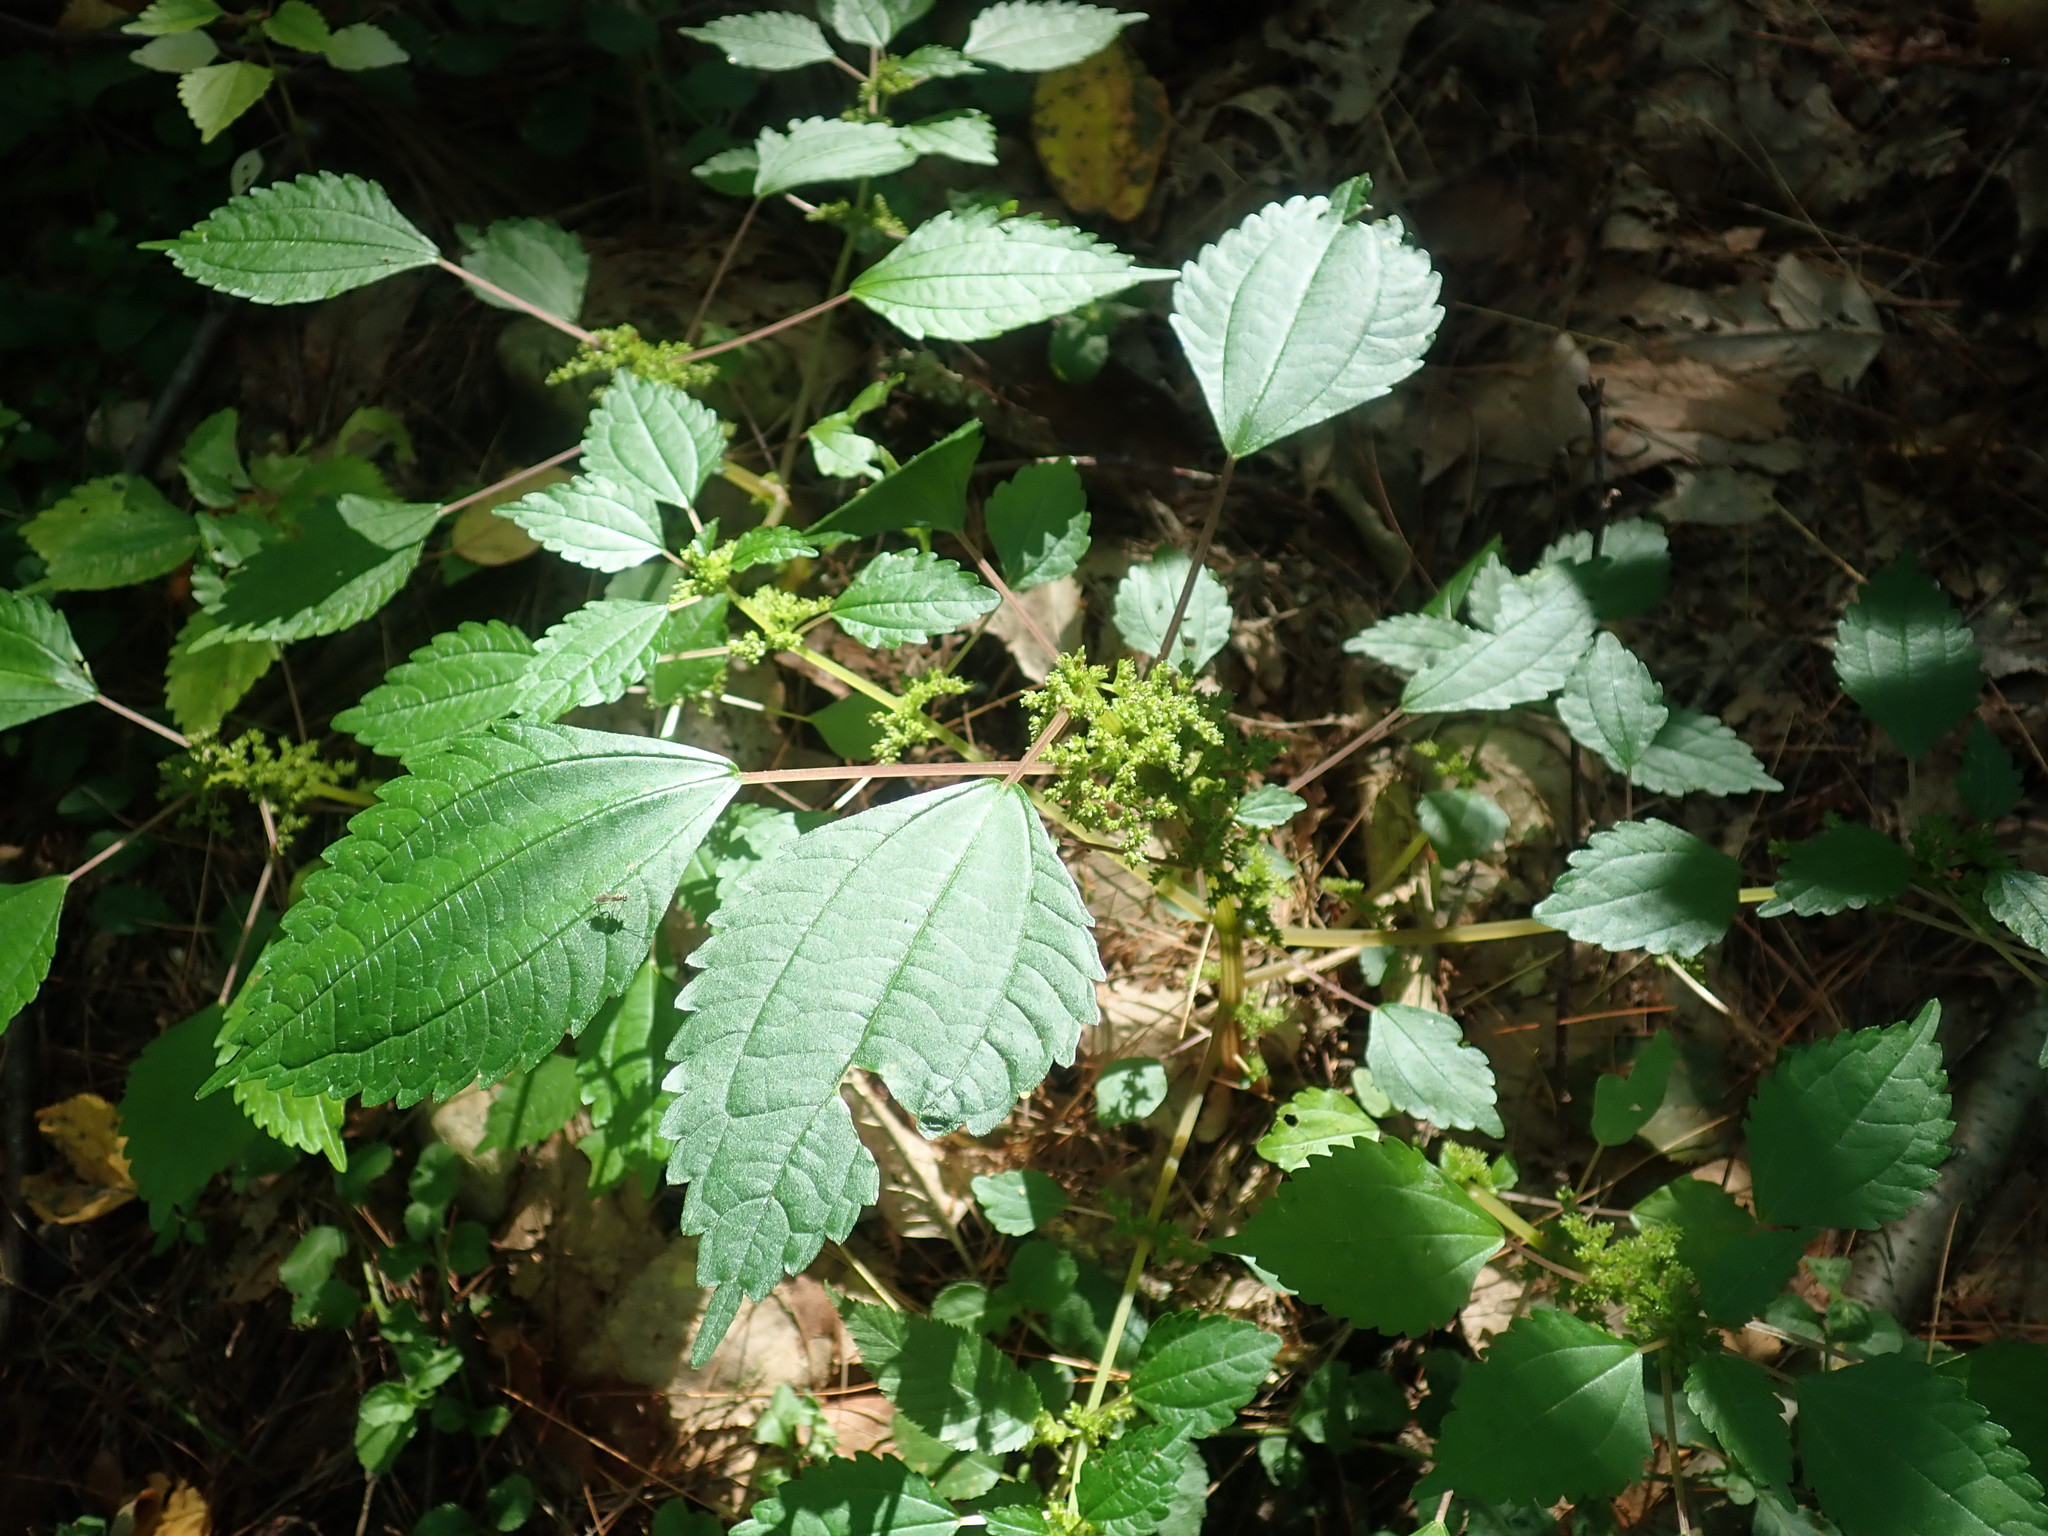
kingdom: Plantae
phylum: Tracheophyta
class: Magnoliopsida
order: Rosales
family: Urticaceae
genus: Pilea
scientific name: Pilea pumila
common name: Clearweed
